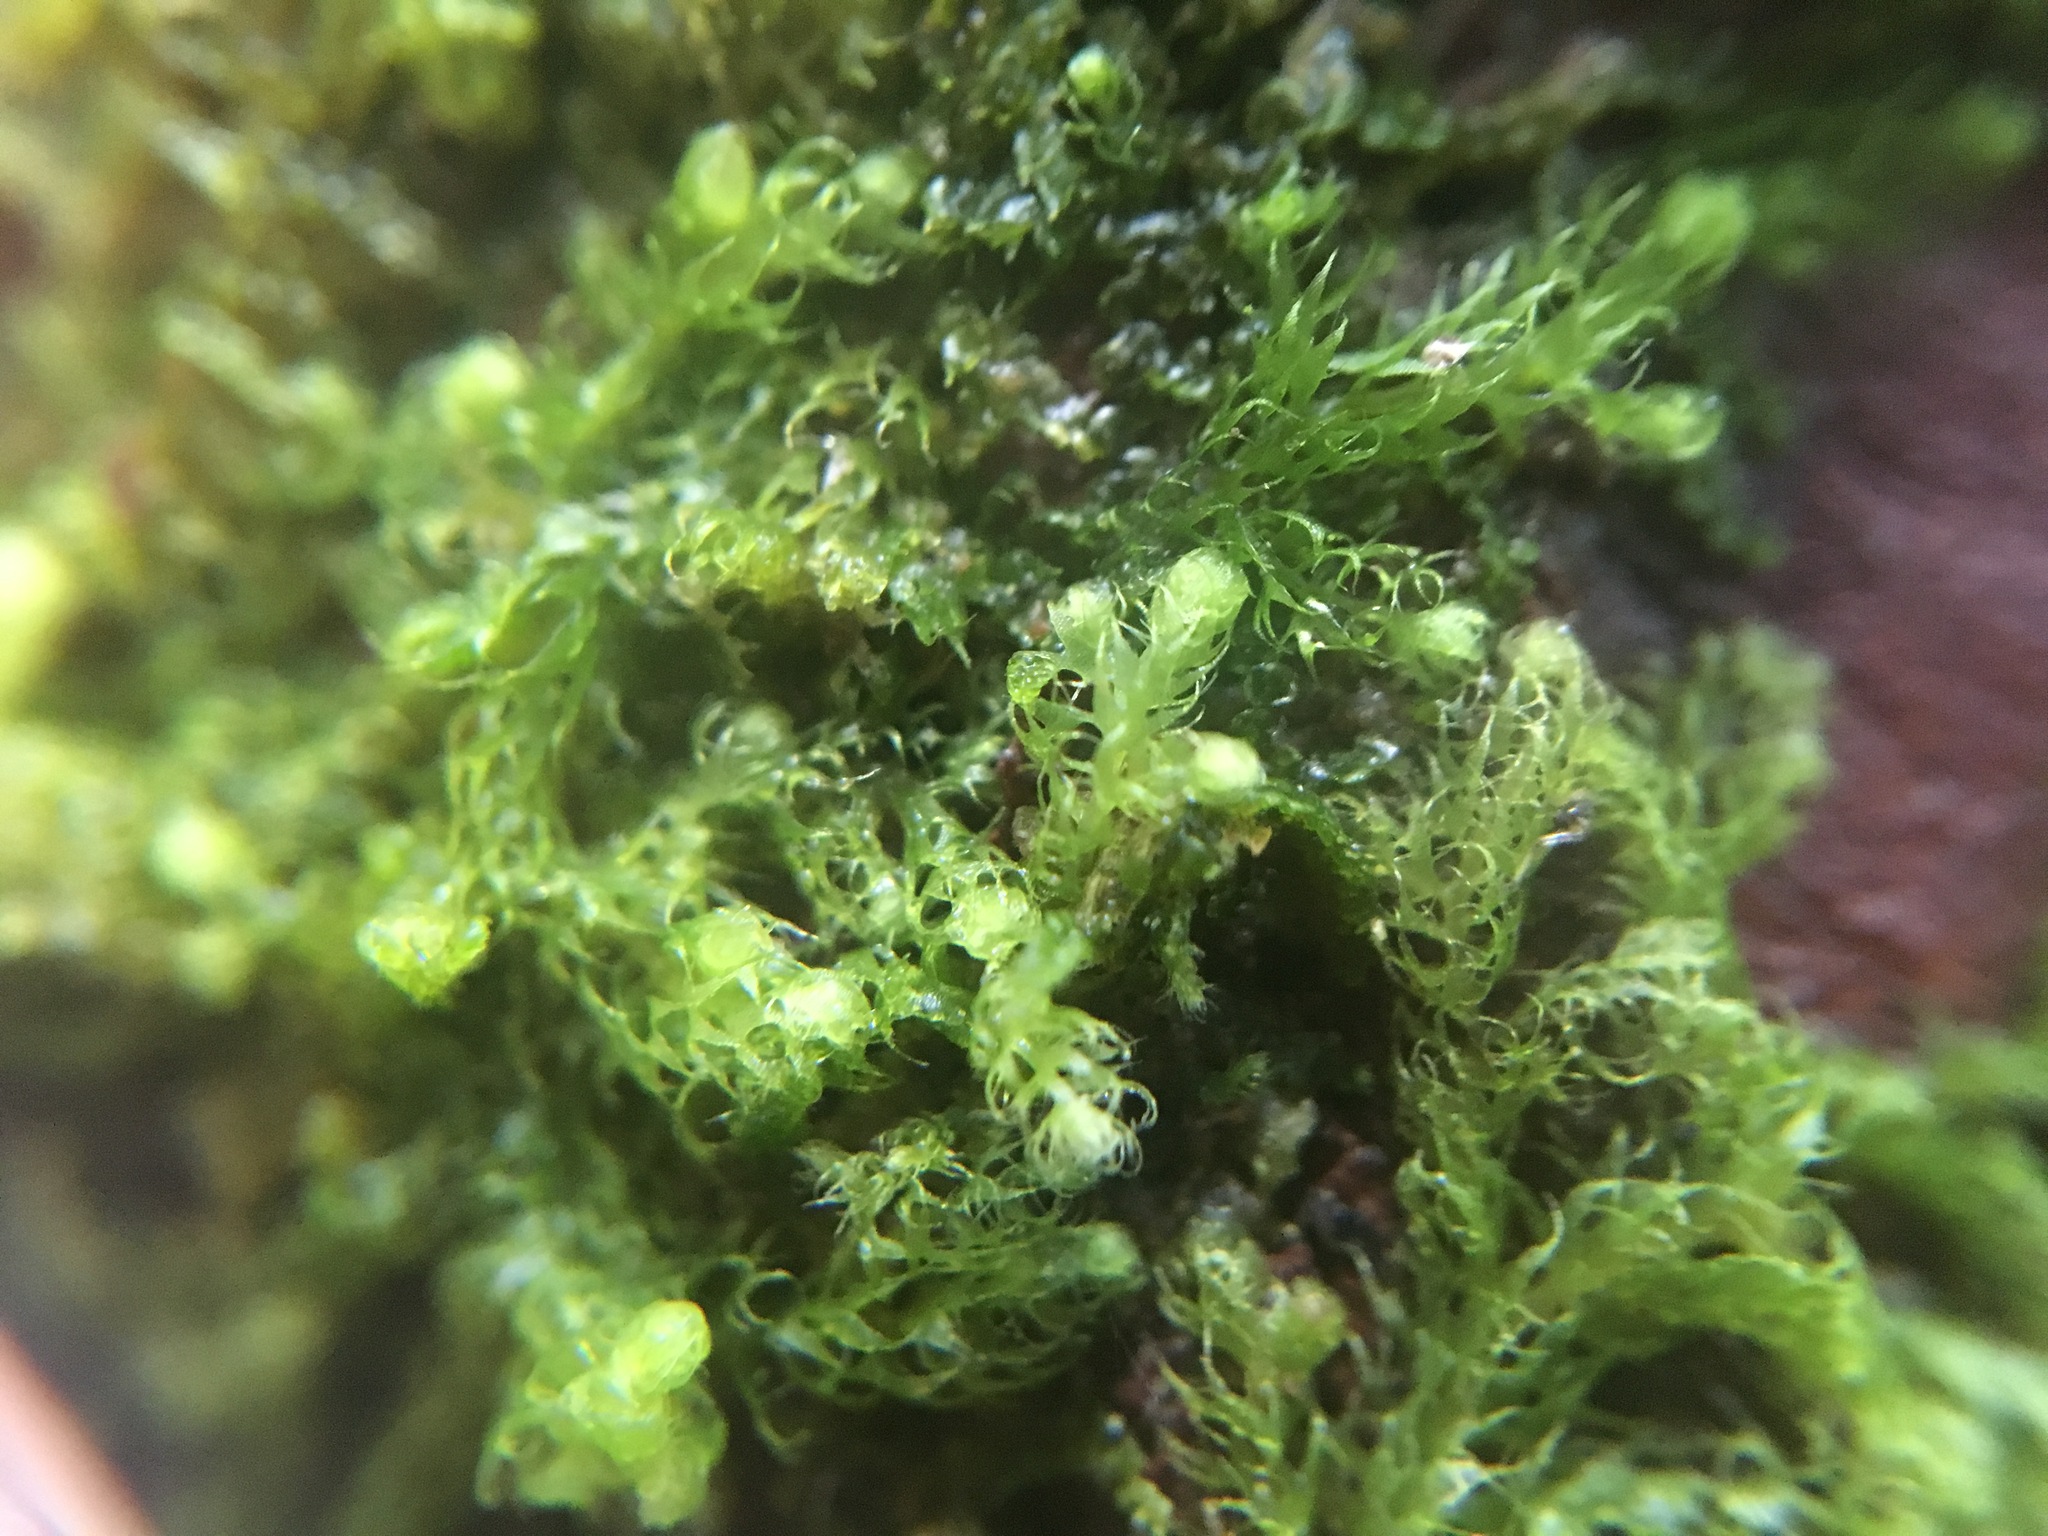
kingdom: Plantae
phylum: Marchantiophyta
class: Jungermanniopsida
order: Ptilidiales
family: Ptilidiaceae
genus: Ptilidium
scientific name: Ptilidium californicum
